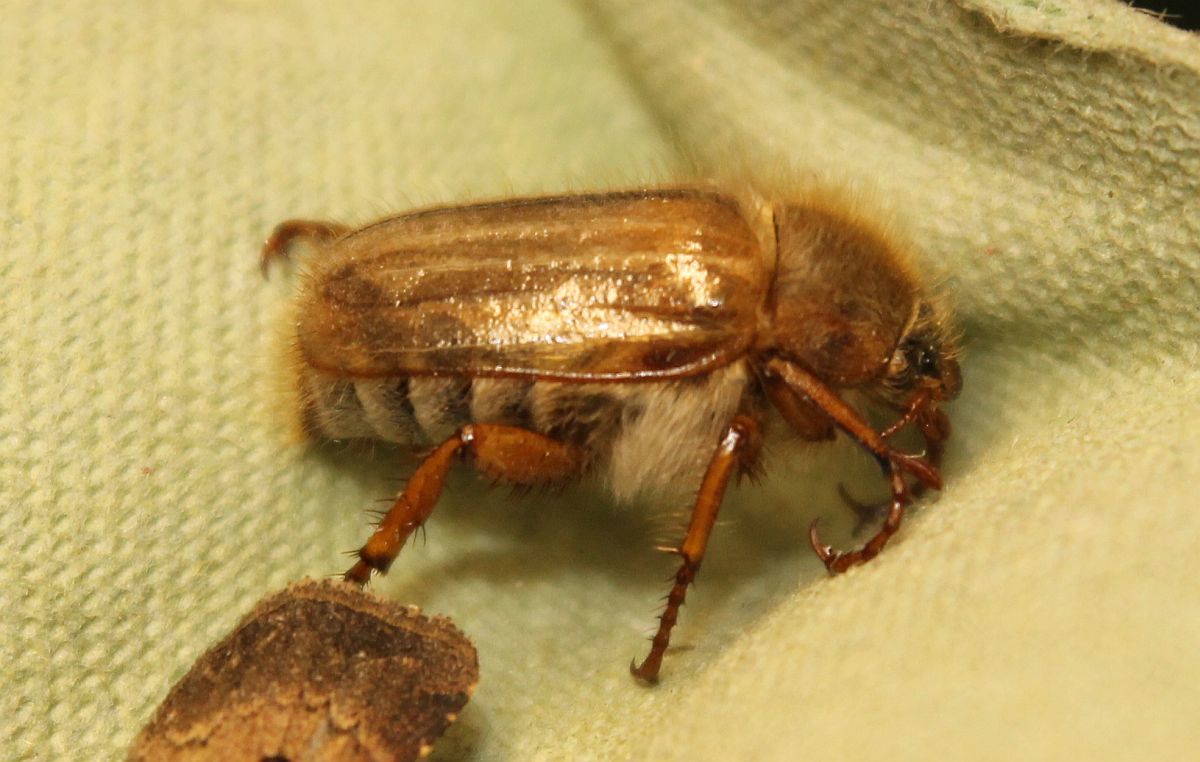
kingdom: Animalia
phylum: Arthropoda
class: Insecta
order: Coleoptera
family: Scarabaeidae
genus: Amphimallon
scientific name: Amphimallon solstitiale
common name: Summer chafer
